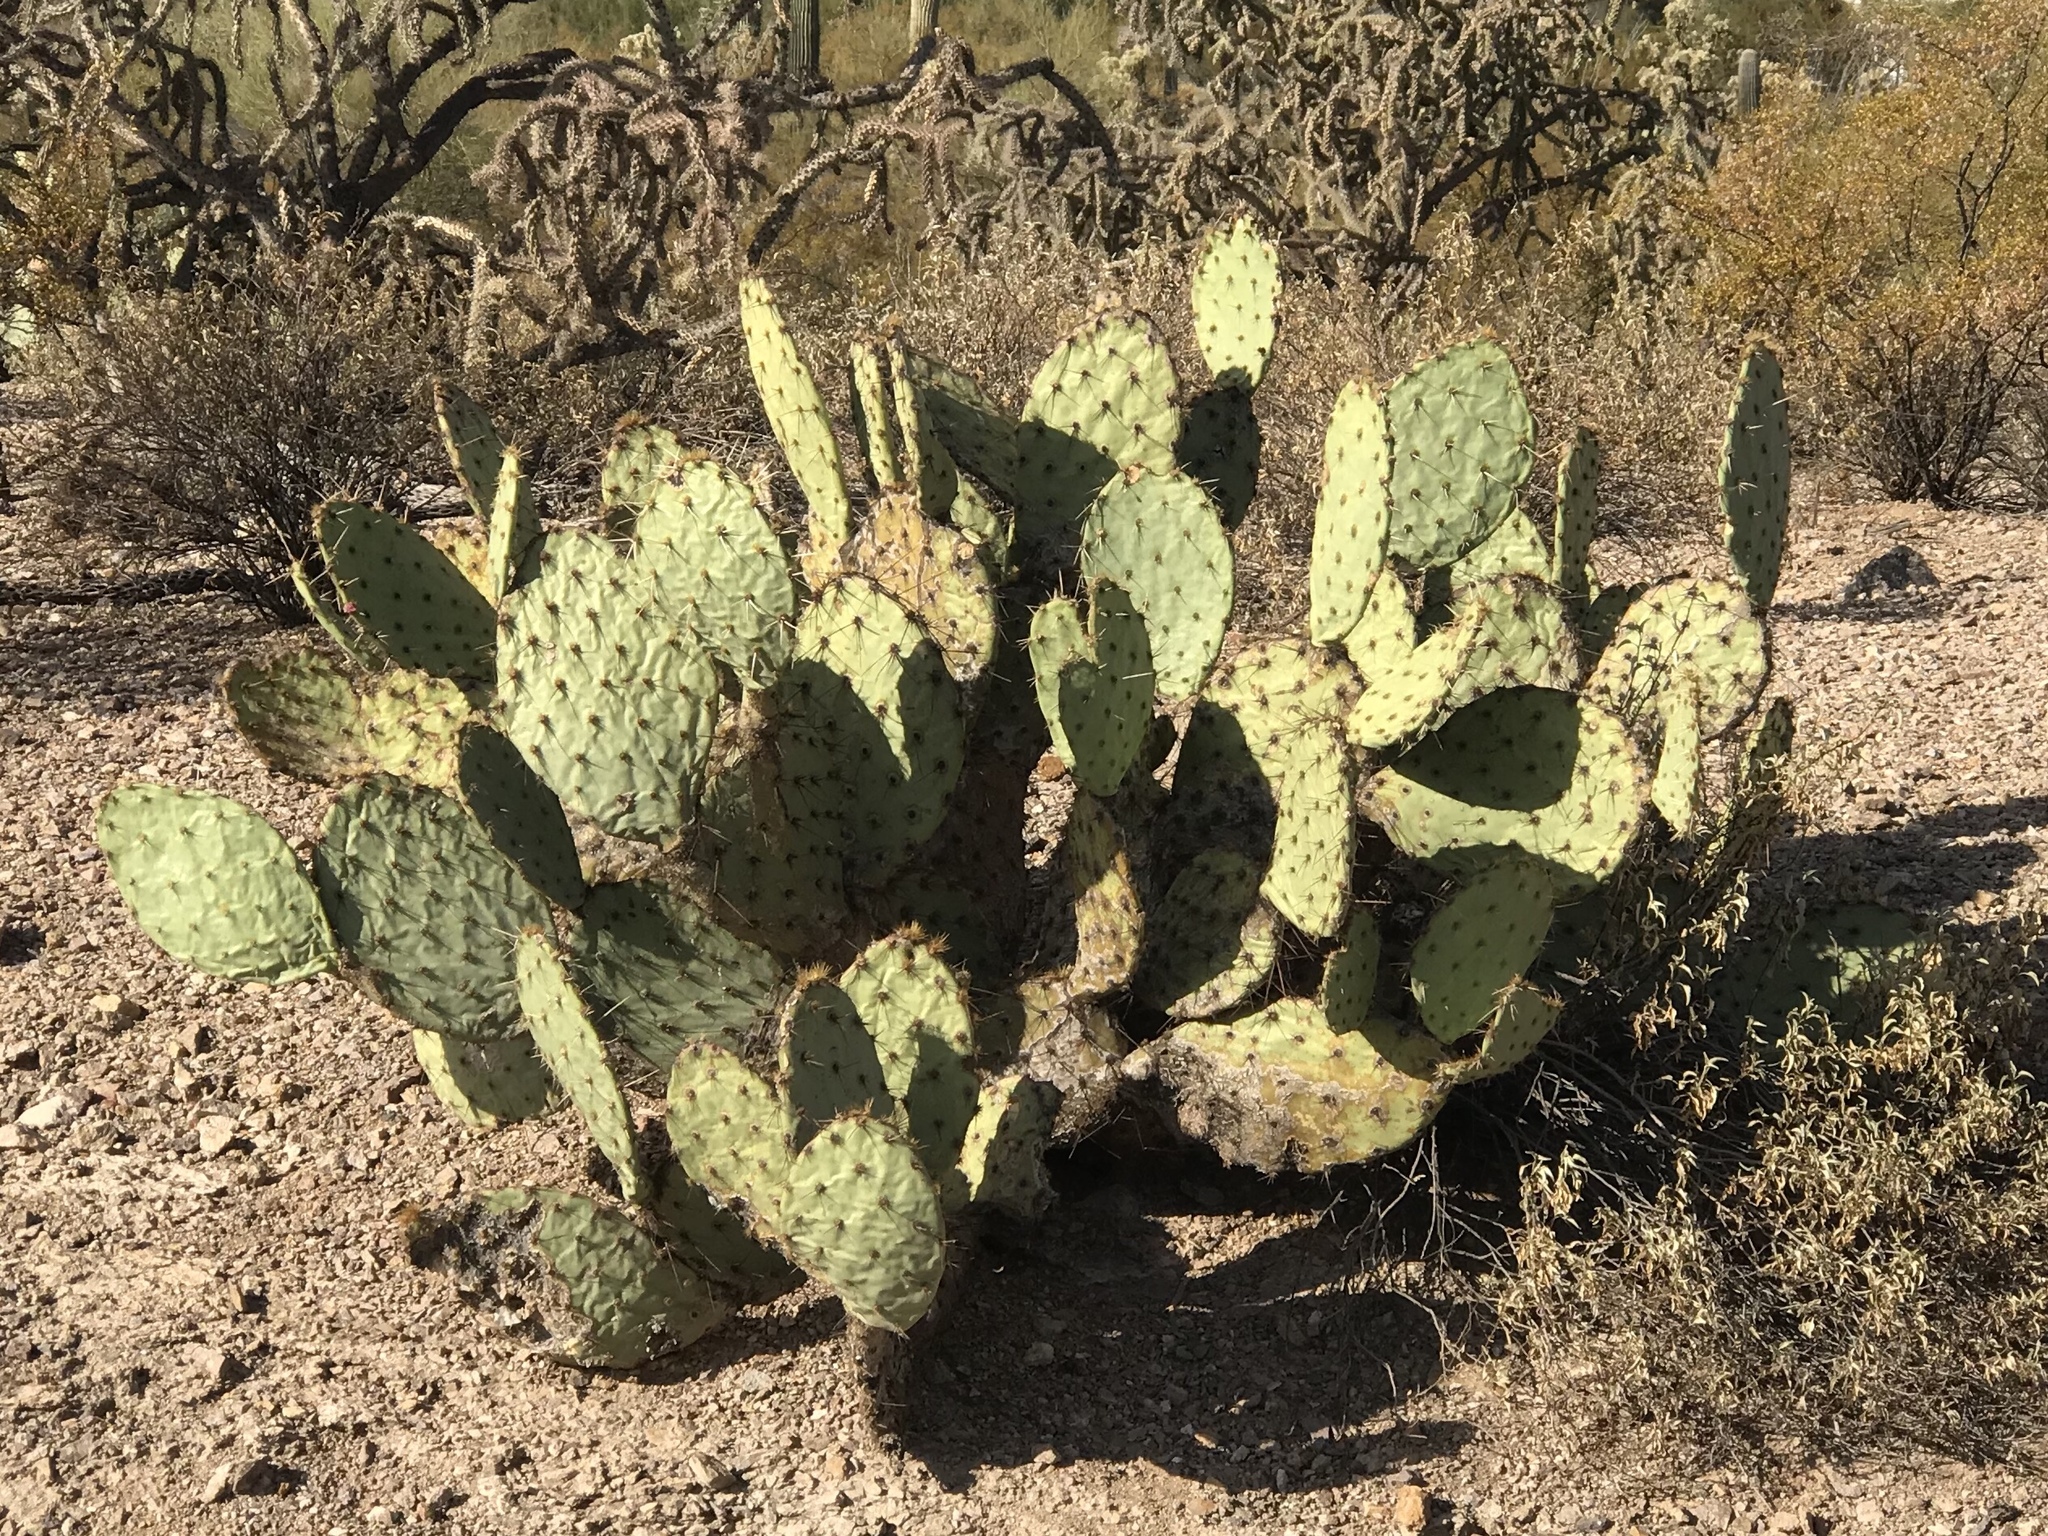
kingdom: Plantae
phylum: Tracheophyta
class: Magnoliopsida
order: Caryophyllales
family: Cactaceae
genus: Opuntia
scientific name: Opuntia engelmannii
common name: Cactus-apple
